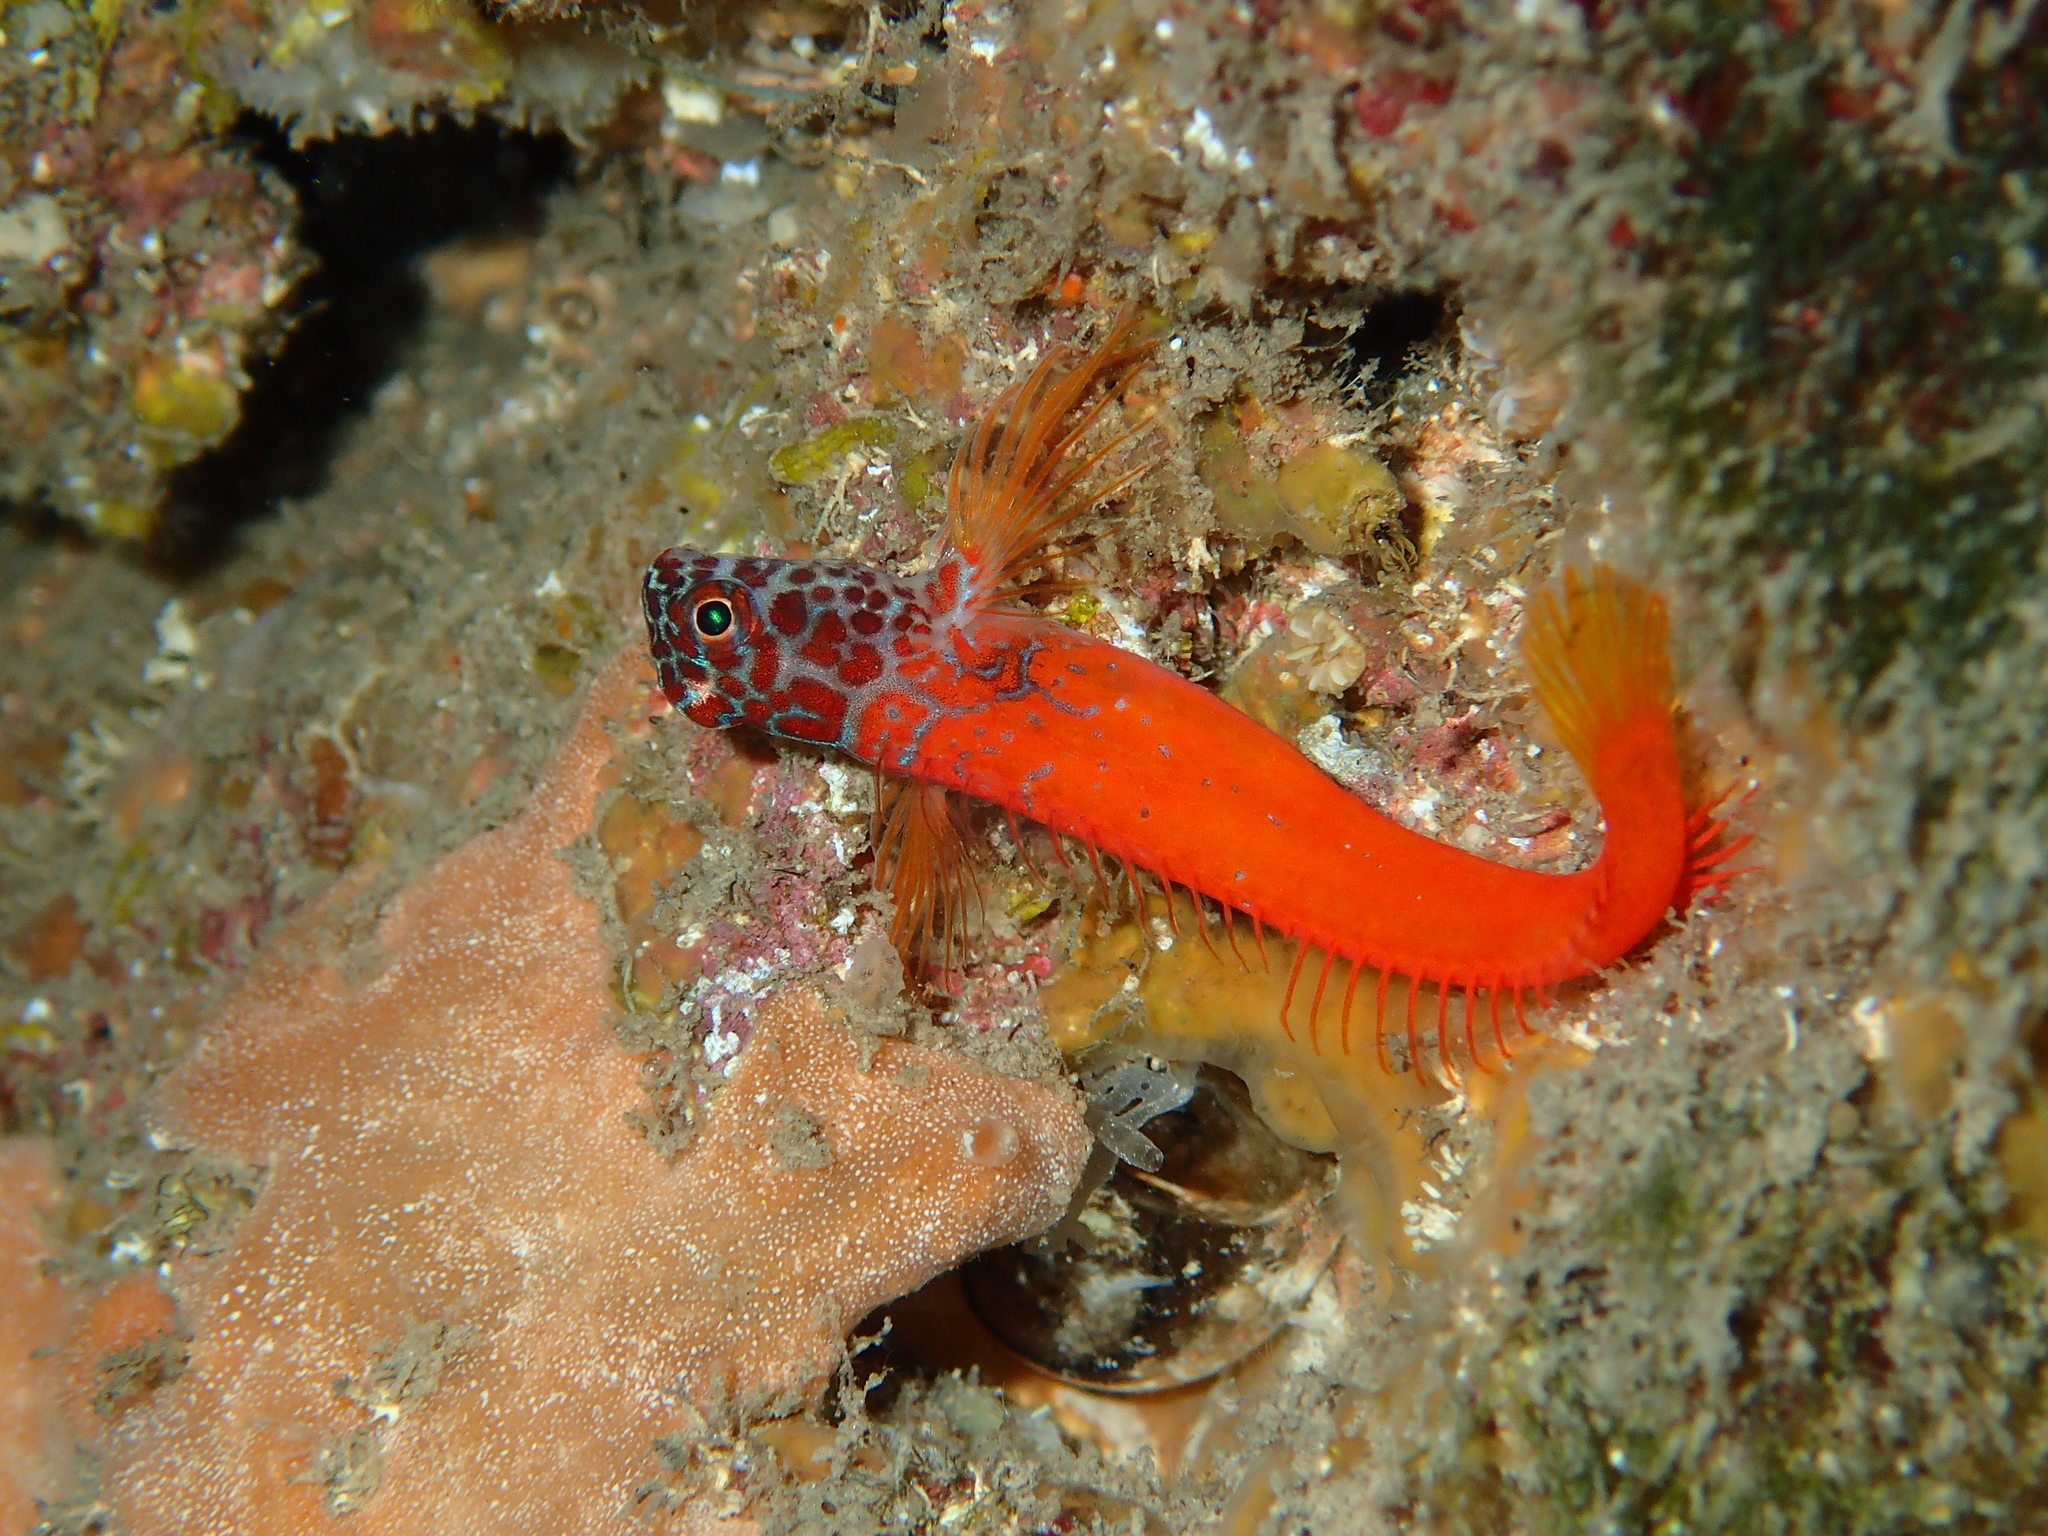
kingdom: Animalia
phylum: Chordata
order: Perciformes
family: Blenniidae
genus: Microlipophrys
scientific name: Microlipophrys nigriceps
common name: Black-headed blenny
